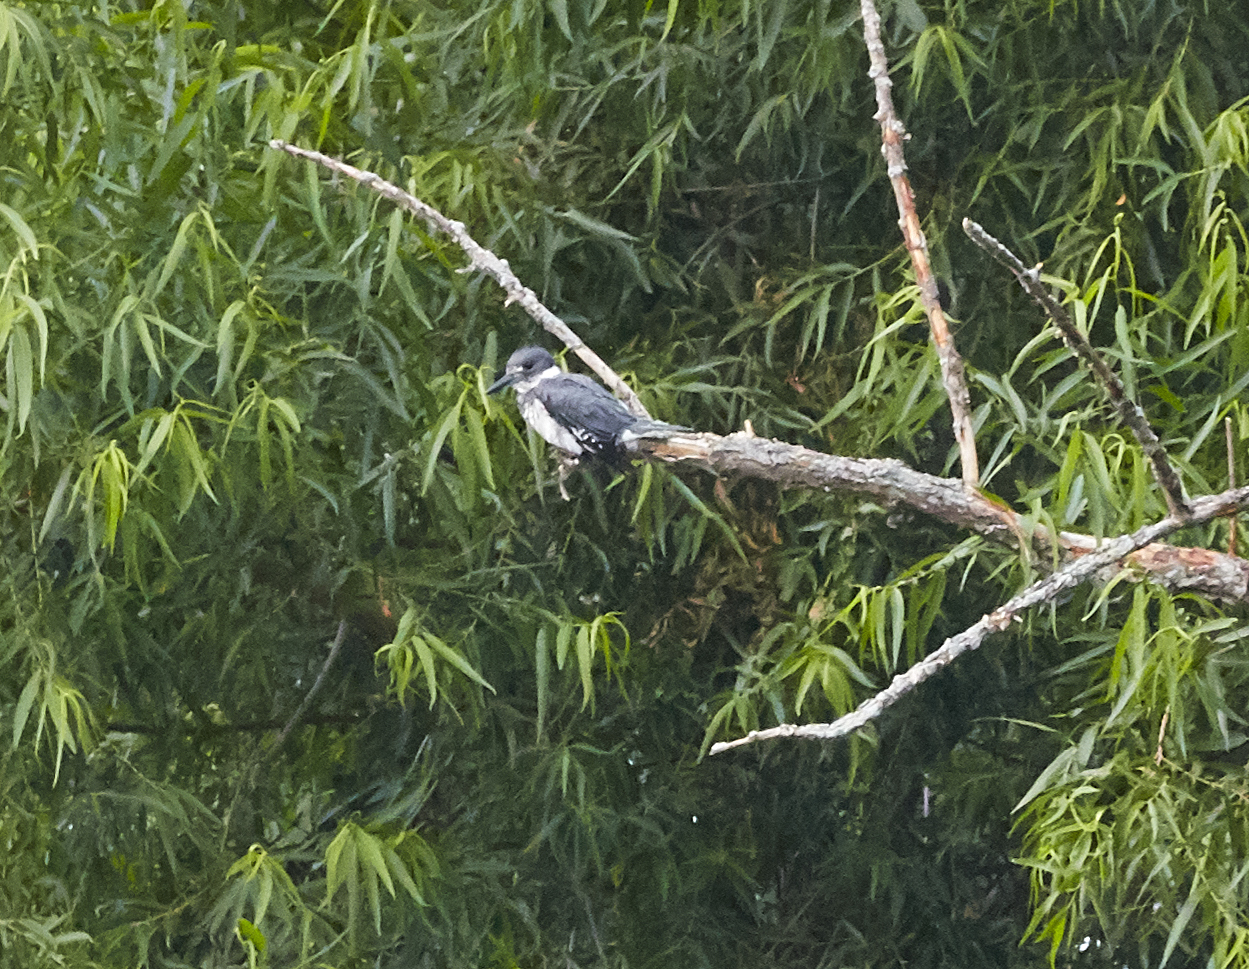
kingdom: Animalia
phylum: Chordata
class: Aves
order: Coraciiformes
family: Alcedinidae
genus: Megaceryle
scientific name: Megaceryle alcyon
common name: Belted kingfisher
